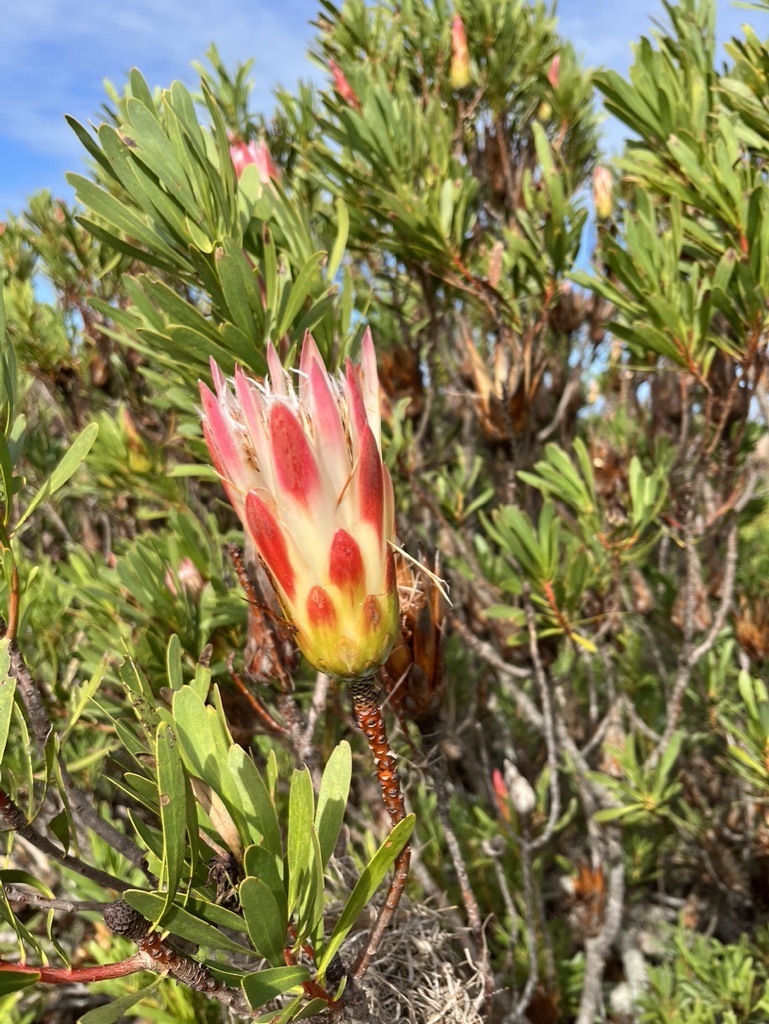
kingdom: Plantae
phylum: Tracheophyta
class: Magnoliopsida
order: Proteales
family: Proteaceae
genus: Protea
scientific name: Protea repens
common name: Sugarbush
